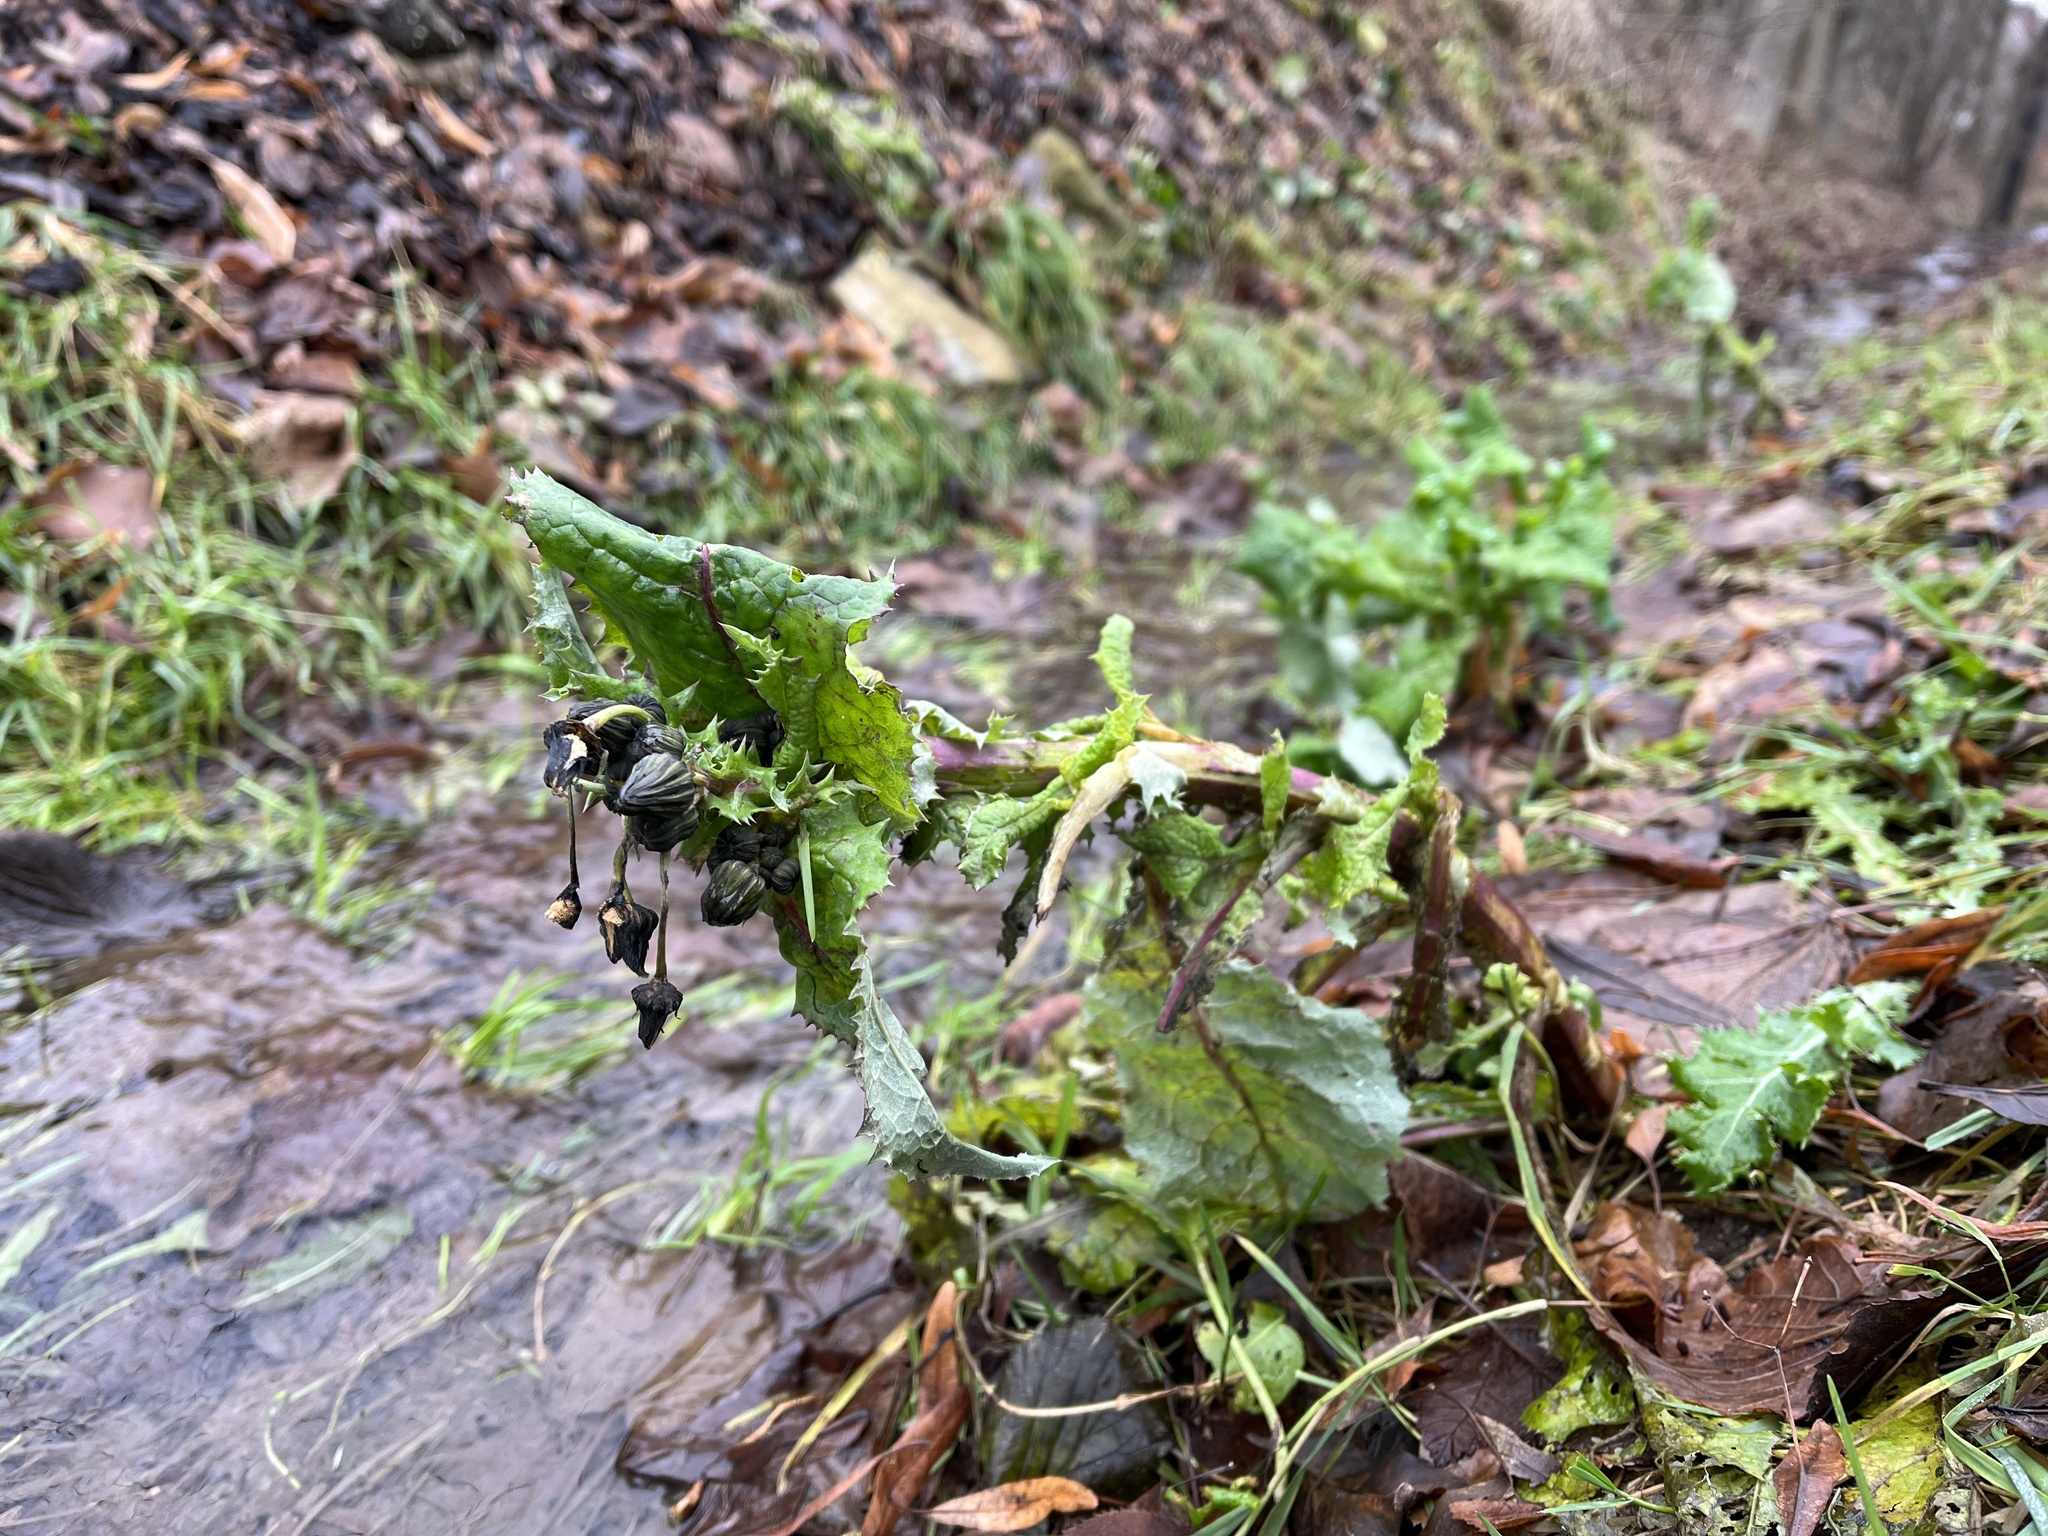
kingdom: Plantae
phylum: Tracheophyta
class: Magnoliopsida
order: Asterales
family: Asteraceae
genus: Sonchus
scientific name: Sonchus asper
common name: Prickly sow-thistle
